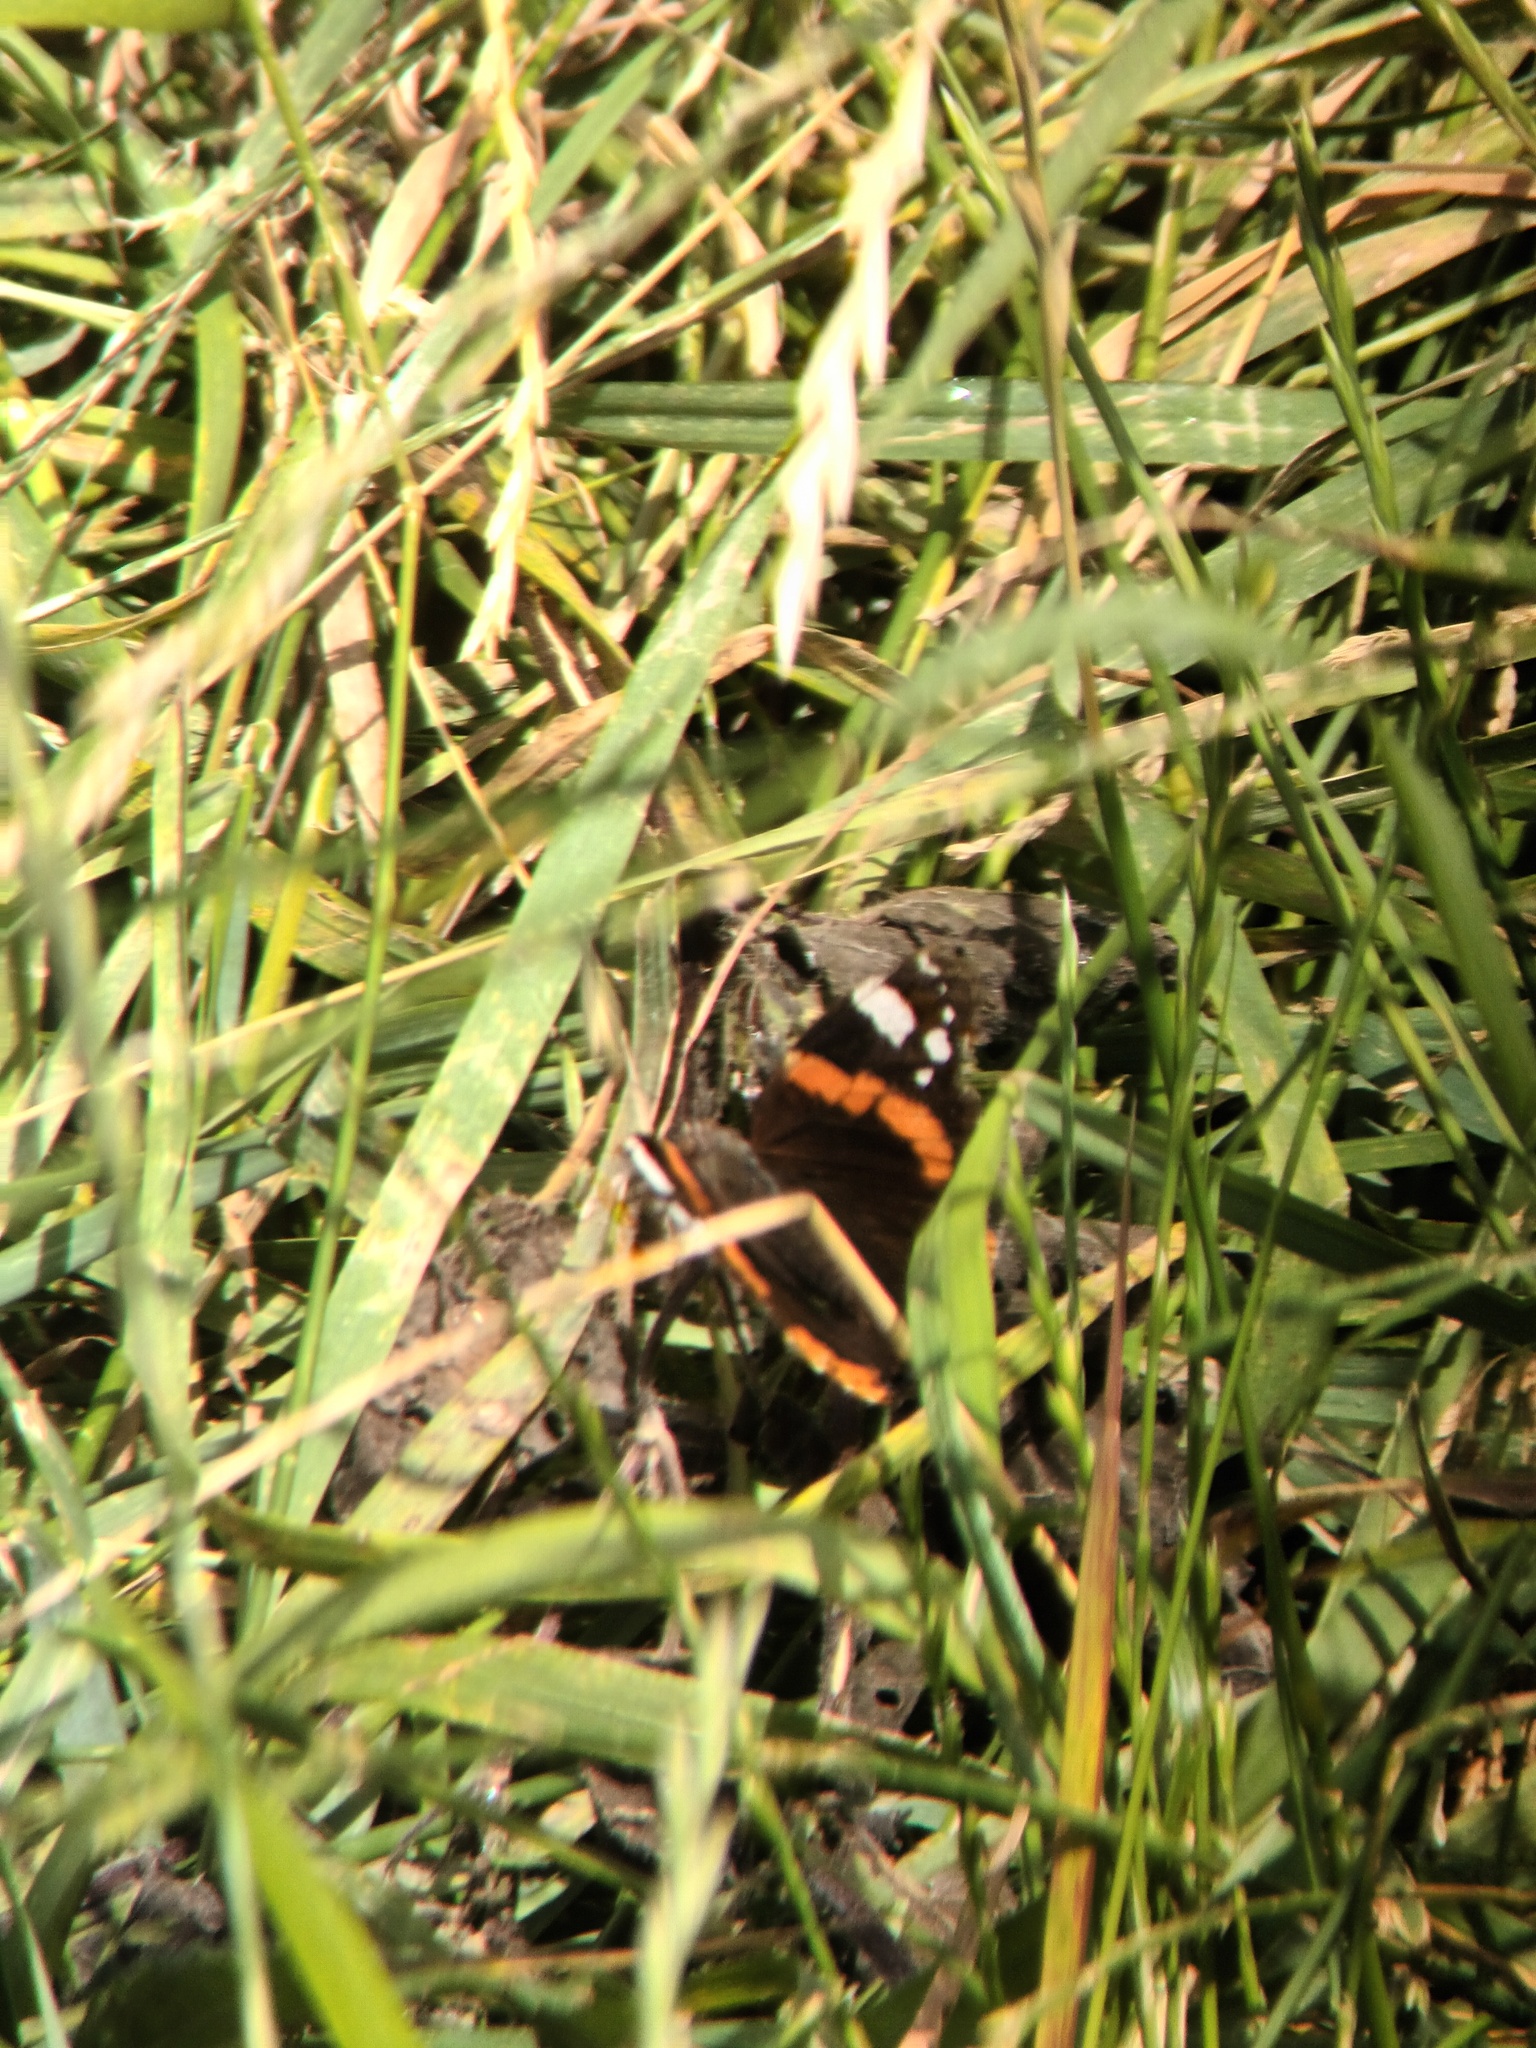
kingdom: Animalia
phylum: Arthropoda
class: Insecta
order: Lepidoptera
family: Nymphalidae
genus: Vanessa
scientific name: Vanessa atalanta
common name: Red admiral
